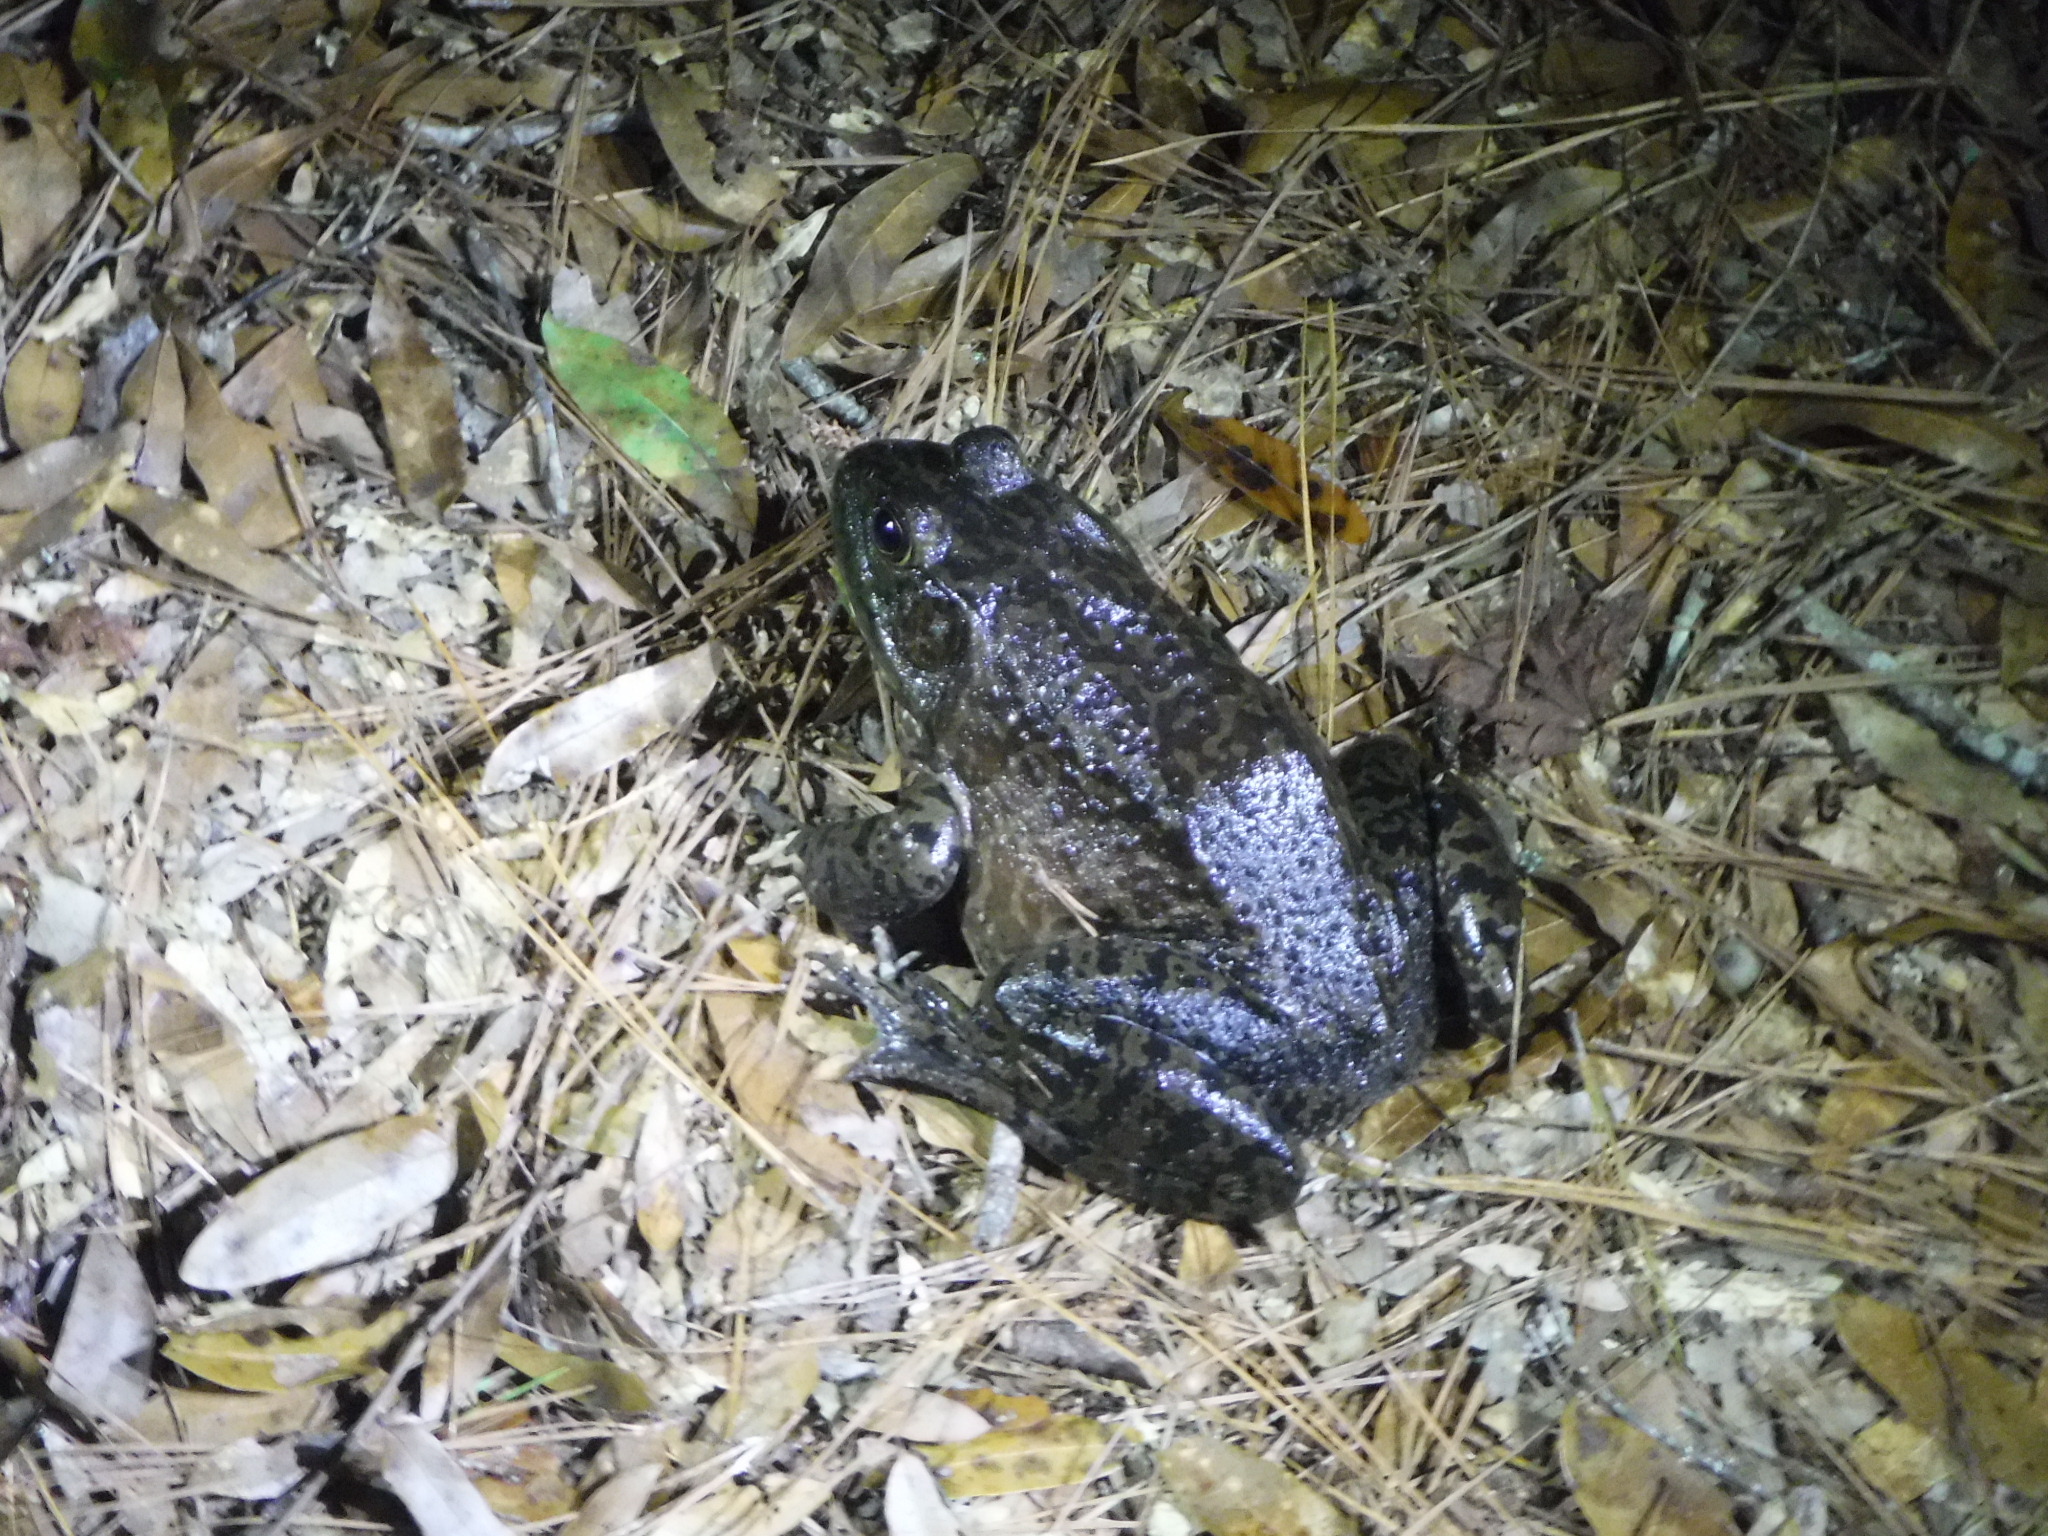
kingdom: Animalia
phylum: Chordata
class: Amphibia
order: Anura
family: Ranidae
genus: Lithobates
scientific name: Lithobates catesbeianus
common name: American bullfrog
